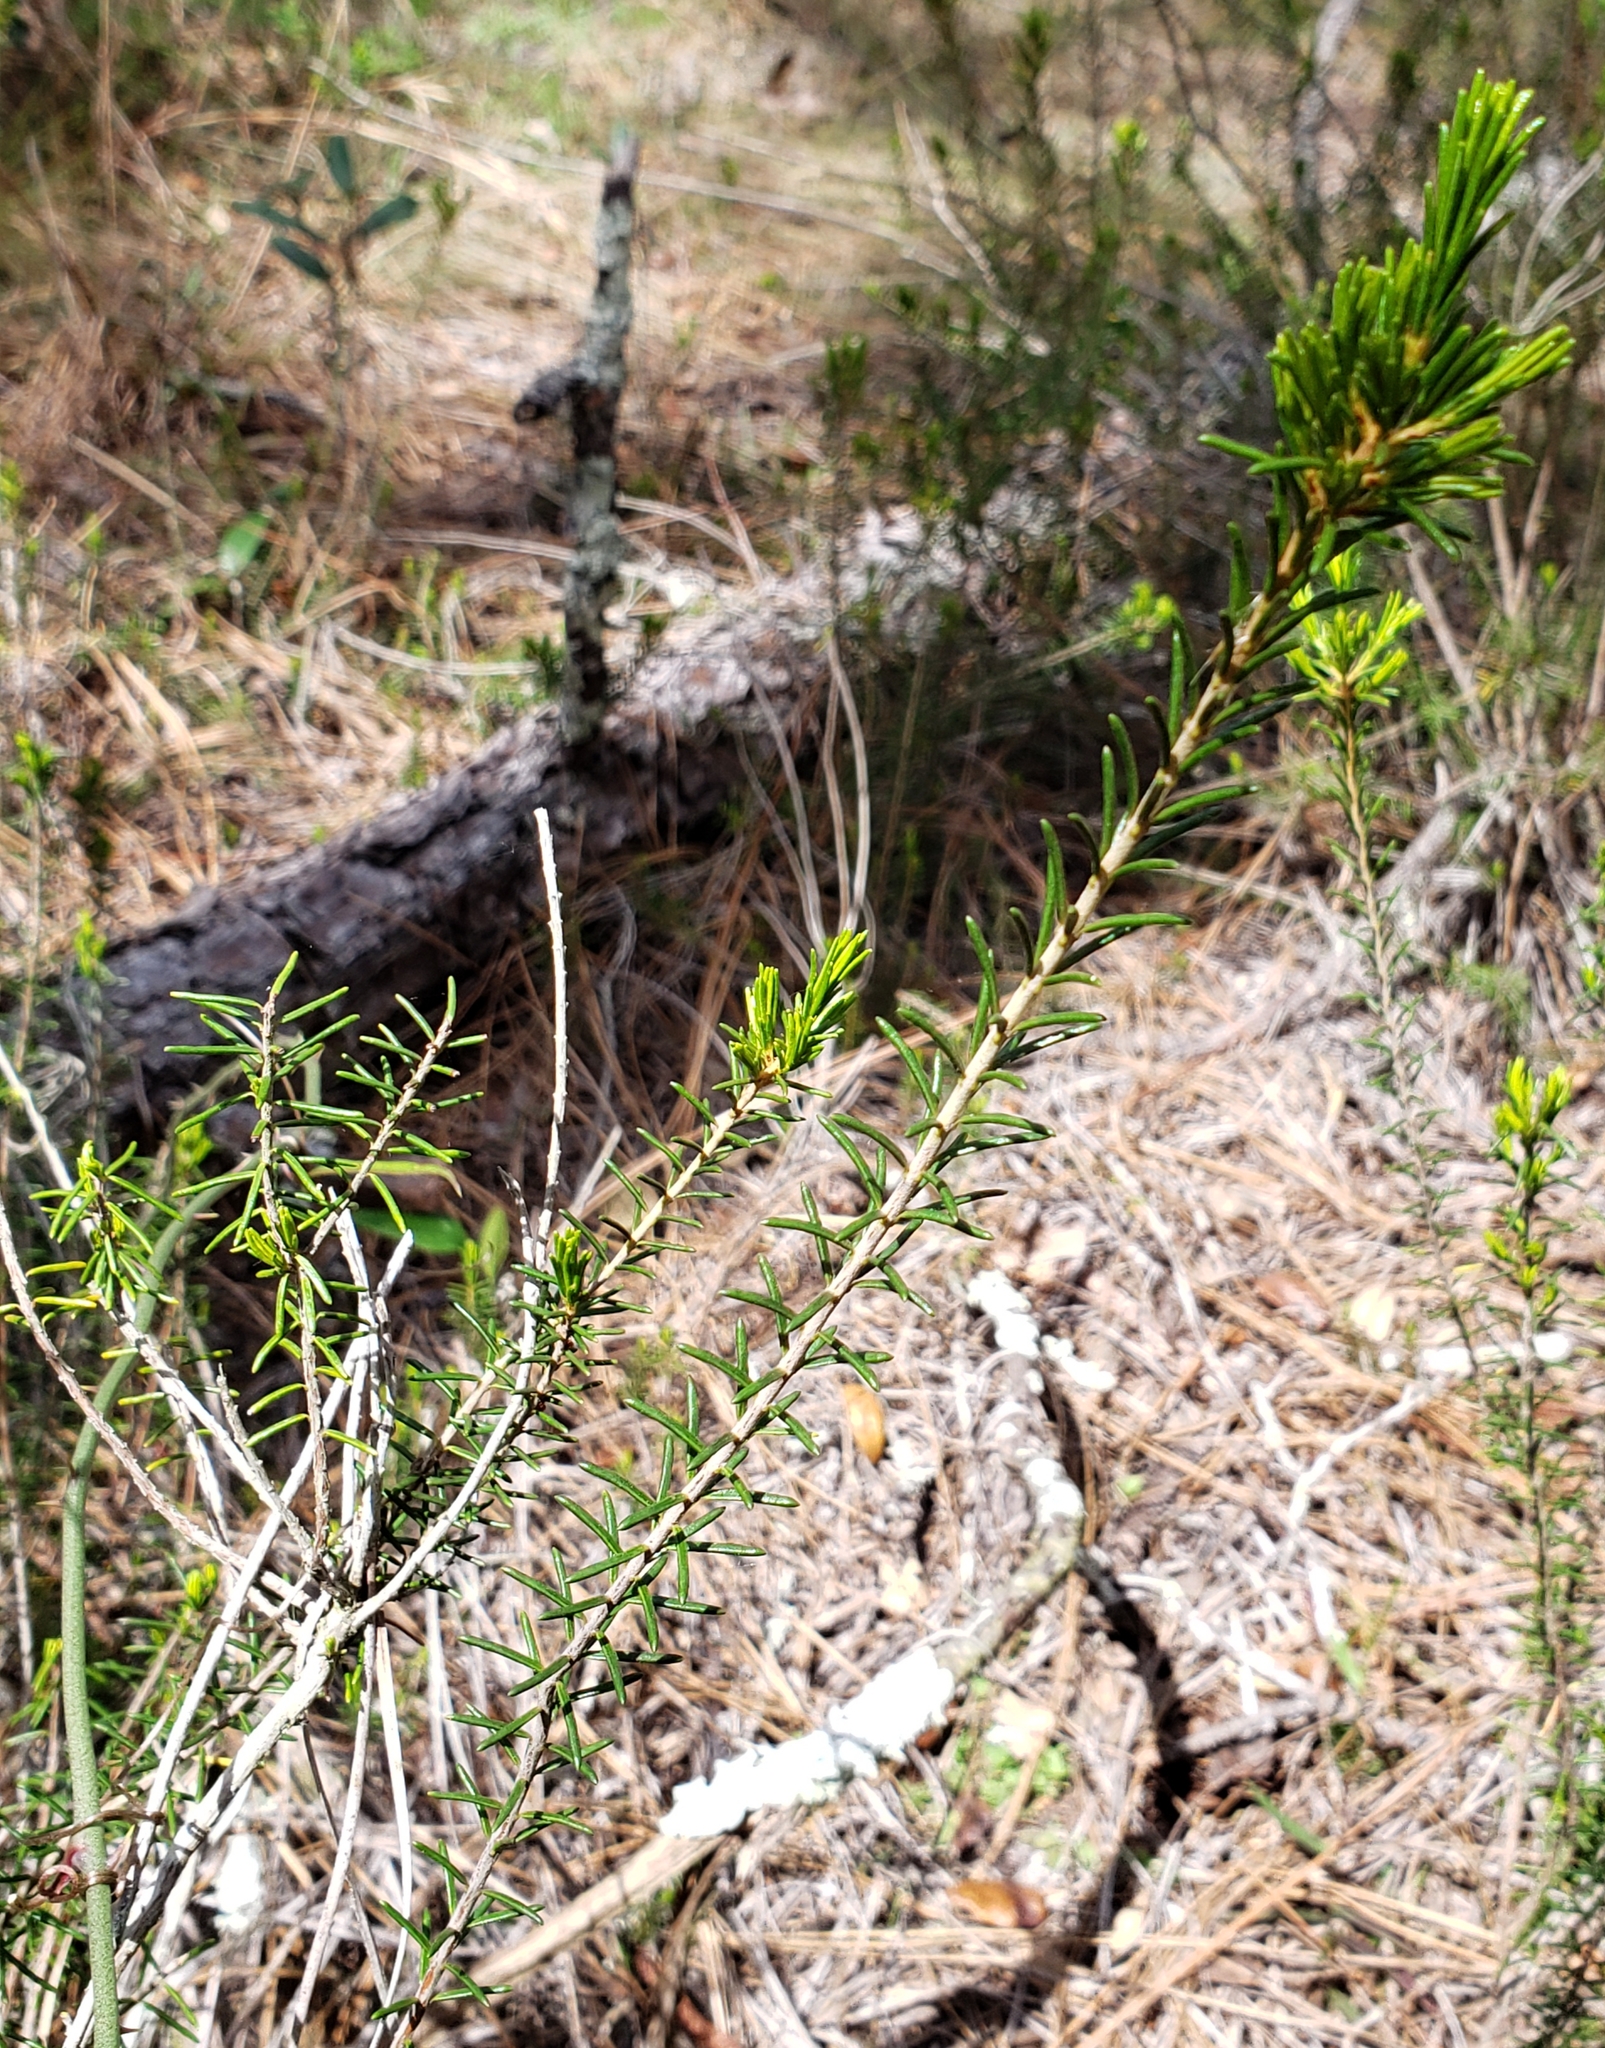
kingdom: Plantae
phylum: Tracheophyta
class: Magnoliopsida
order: Ericales
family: Ericaceae
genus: Ceratiola
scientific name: Ceratiola ericoides
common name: Sandhill-rosemary
